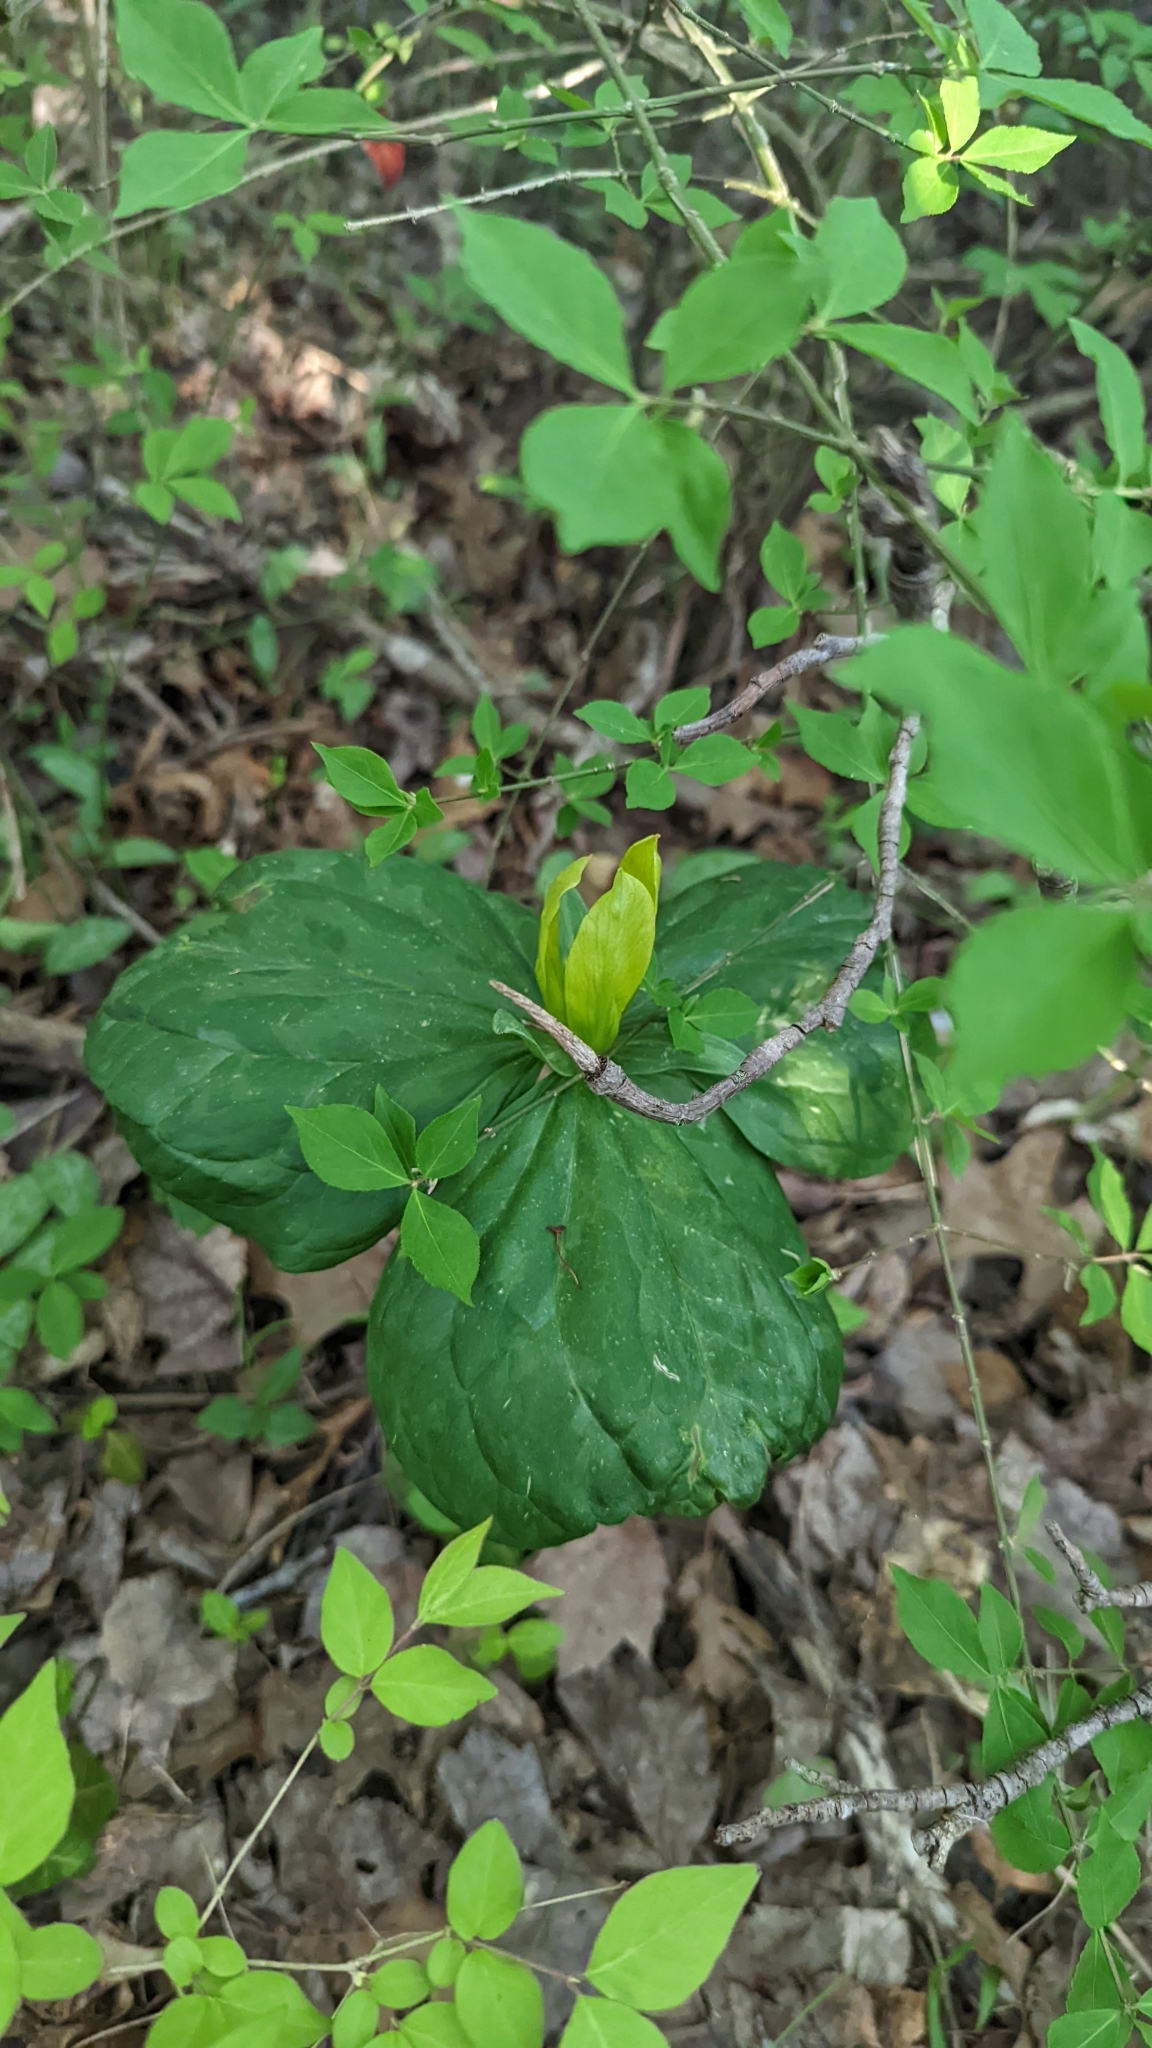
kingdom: Plantae
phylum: Tracheophyta
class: Liliopsida
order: Liliales
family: Melanthiaceae
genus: Trillium
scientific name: Trillium luteum
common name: Wax trillium
